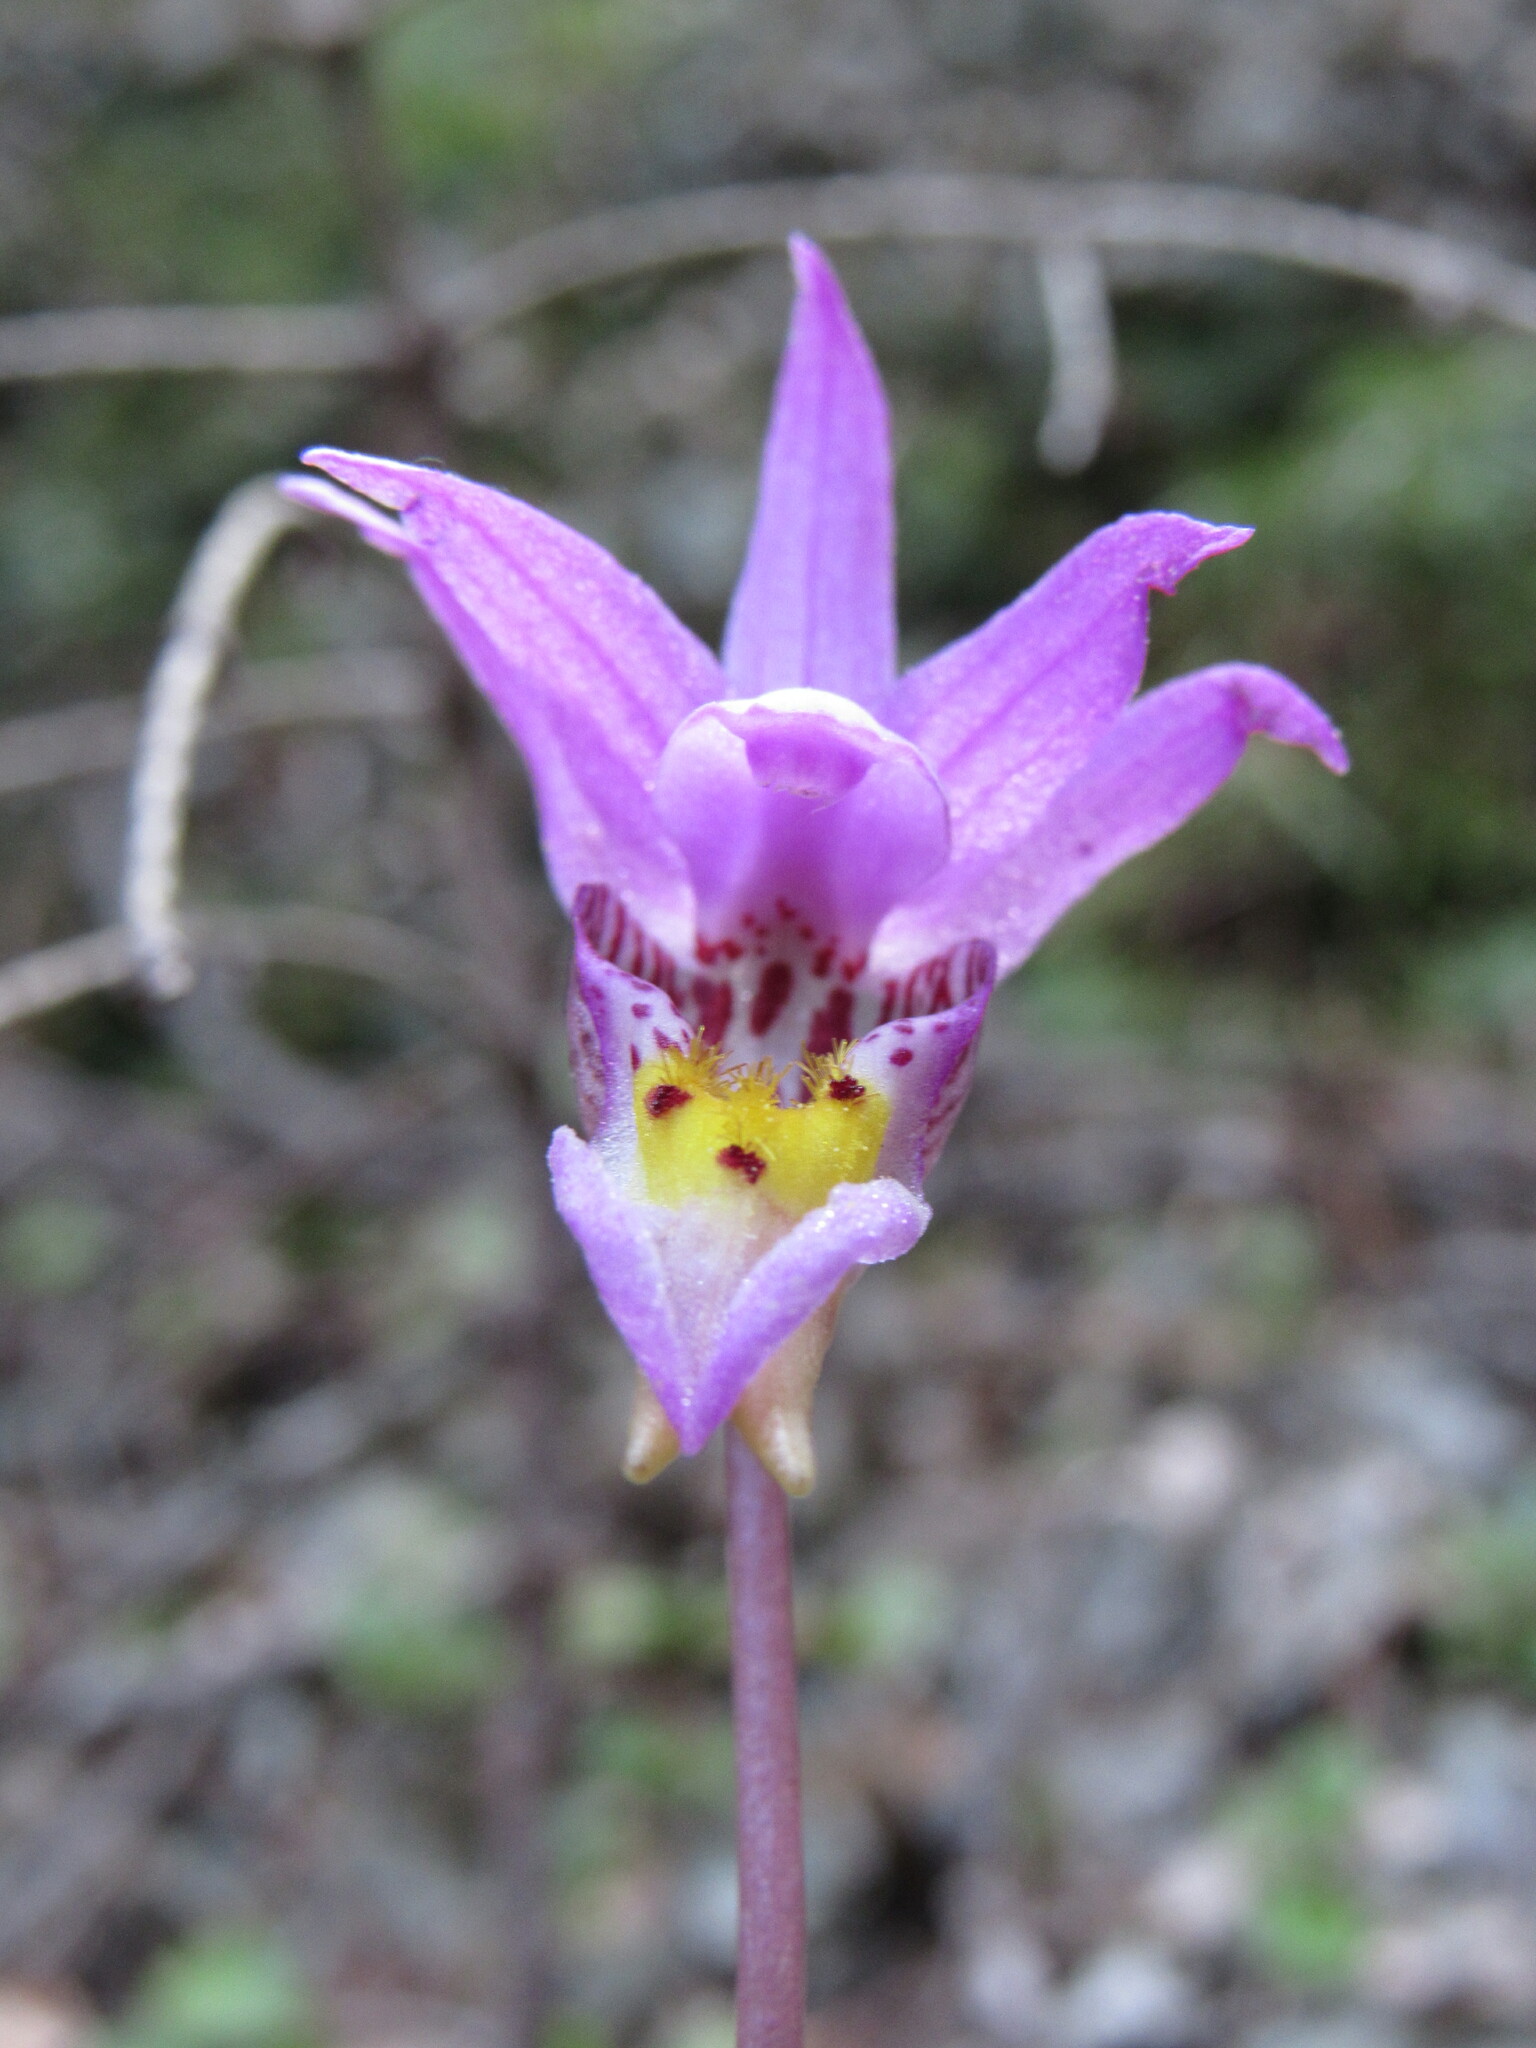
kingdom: Plantae
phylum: Tracheophyta
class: Liliopsida
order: Asparagales
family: Orchidaceae
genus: Calypso
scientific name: Calypso bulbosa
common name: Calypso
